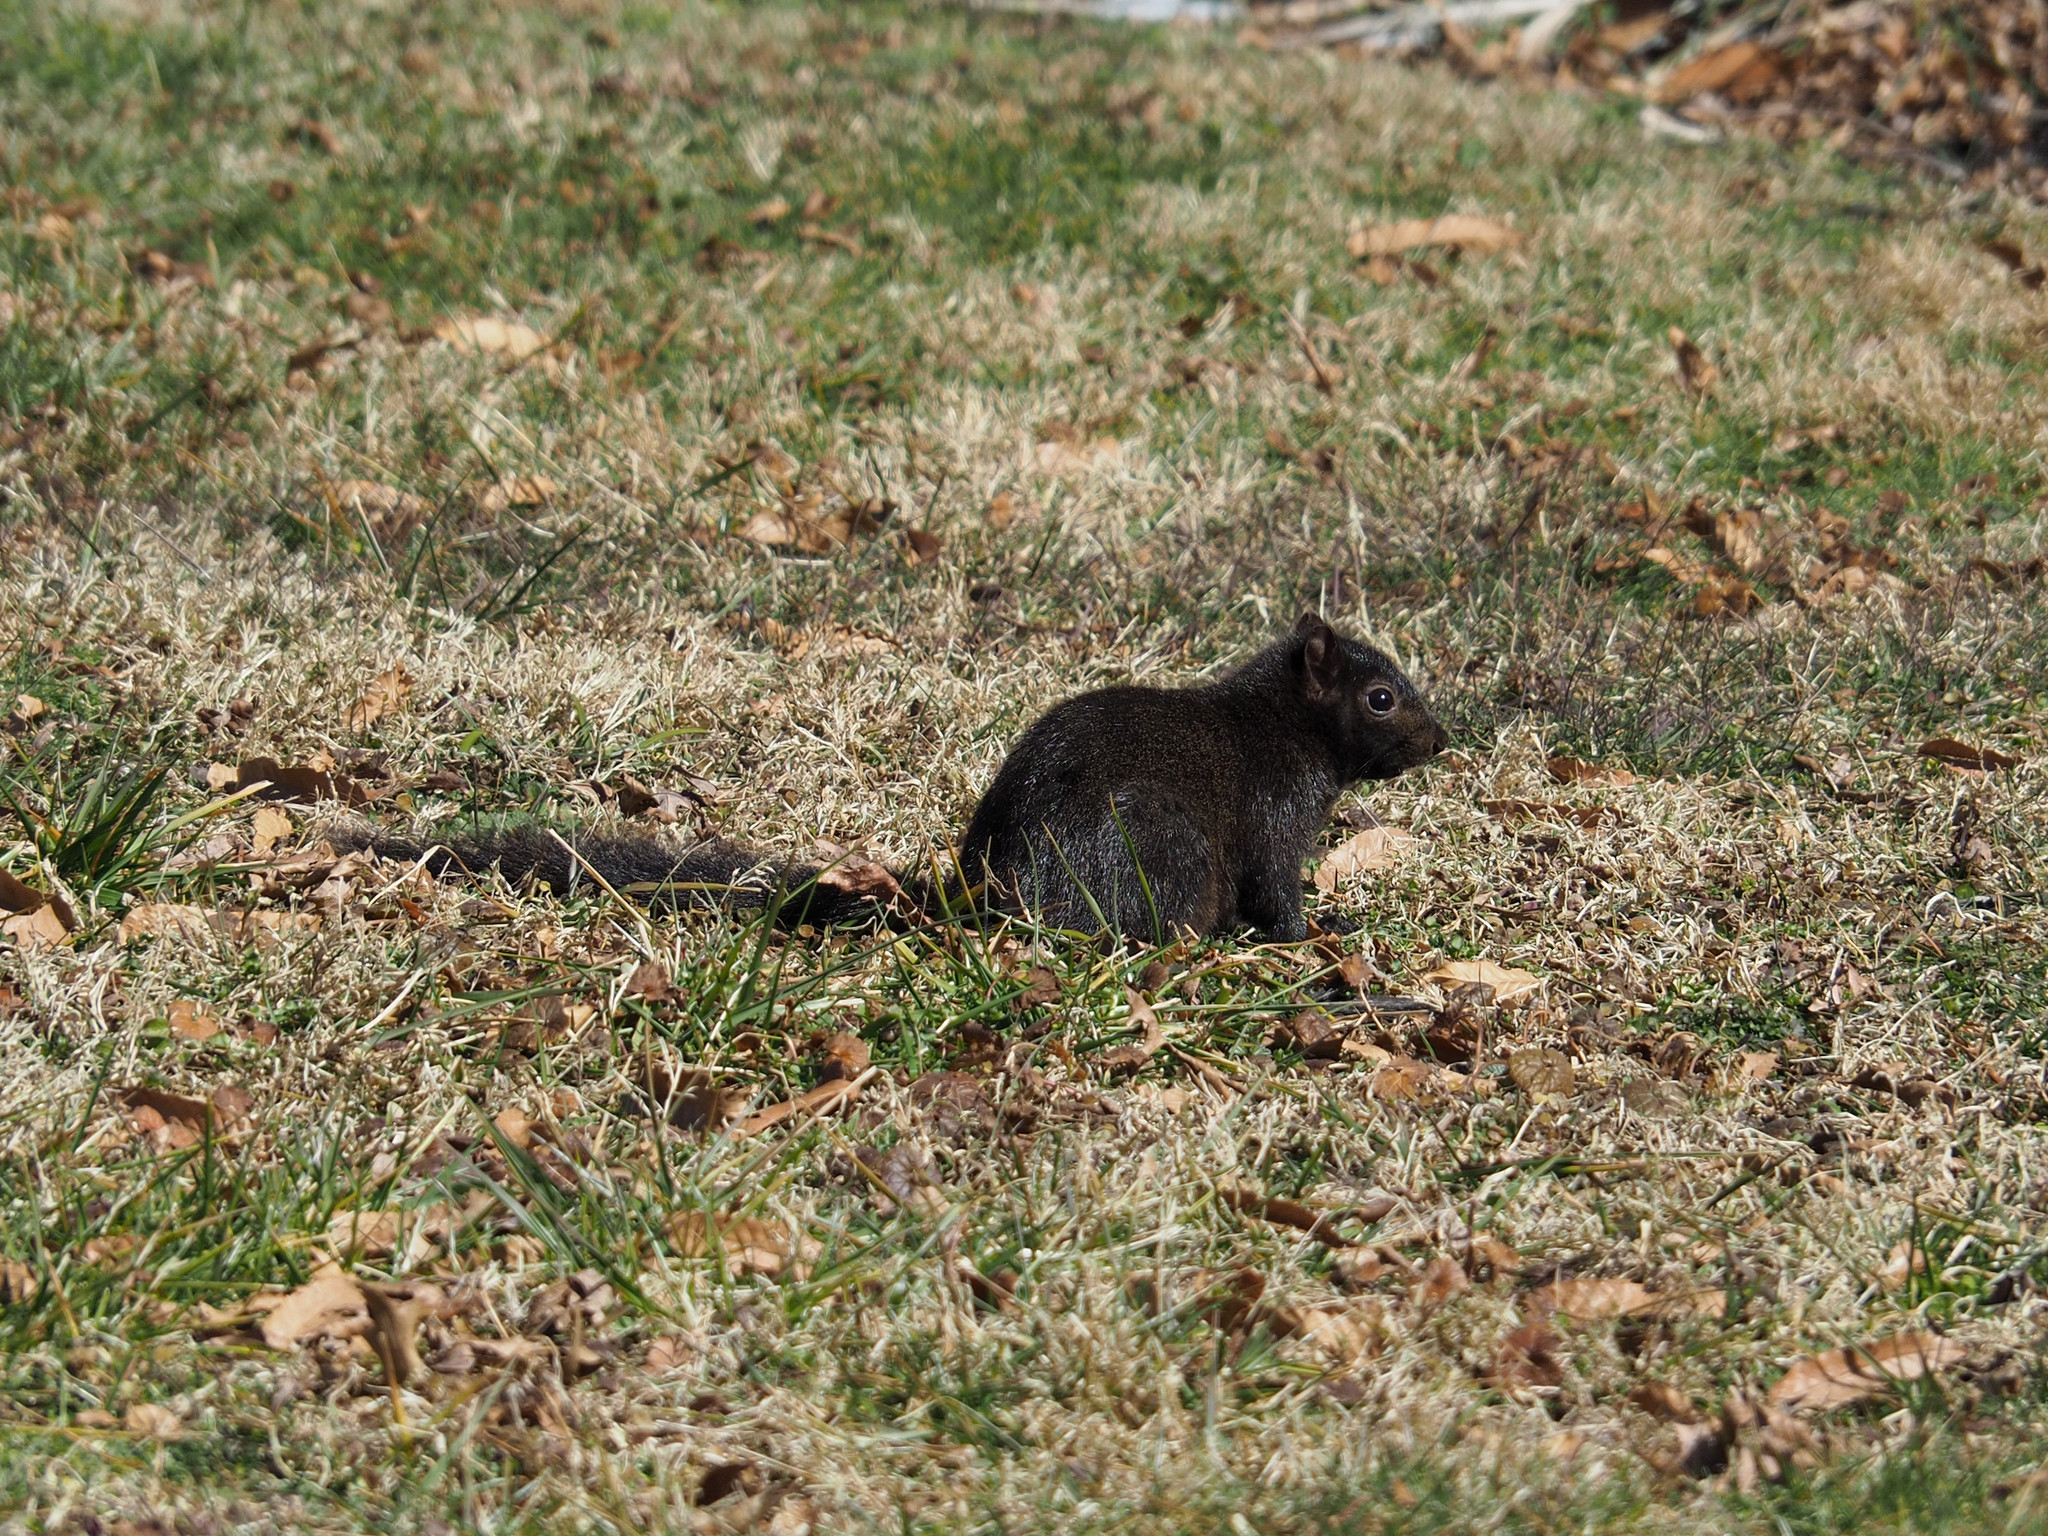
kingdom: Animalia
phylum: Chordata
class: Mammalia
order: Rodentia
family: Sciuridae
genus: Sciurus
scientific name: Sciurus carolinensis
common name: Eastern gray squirrel
